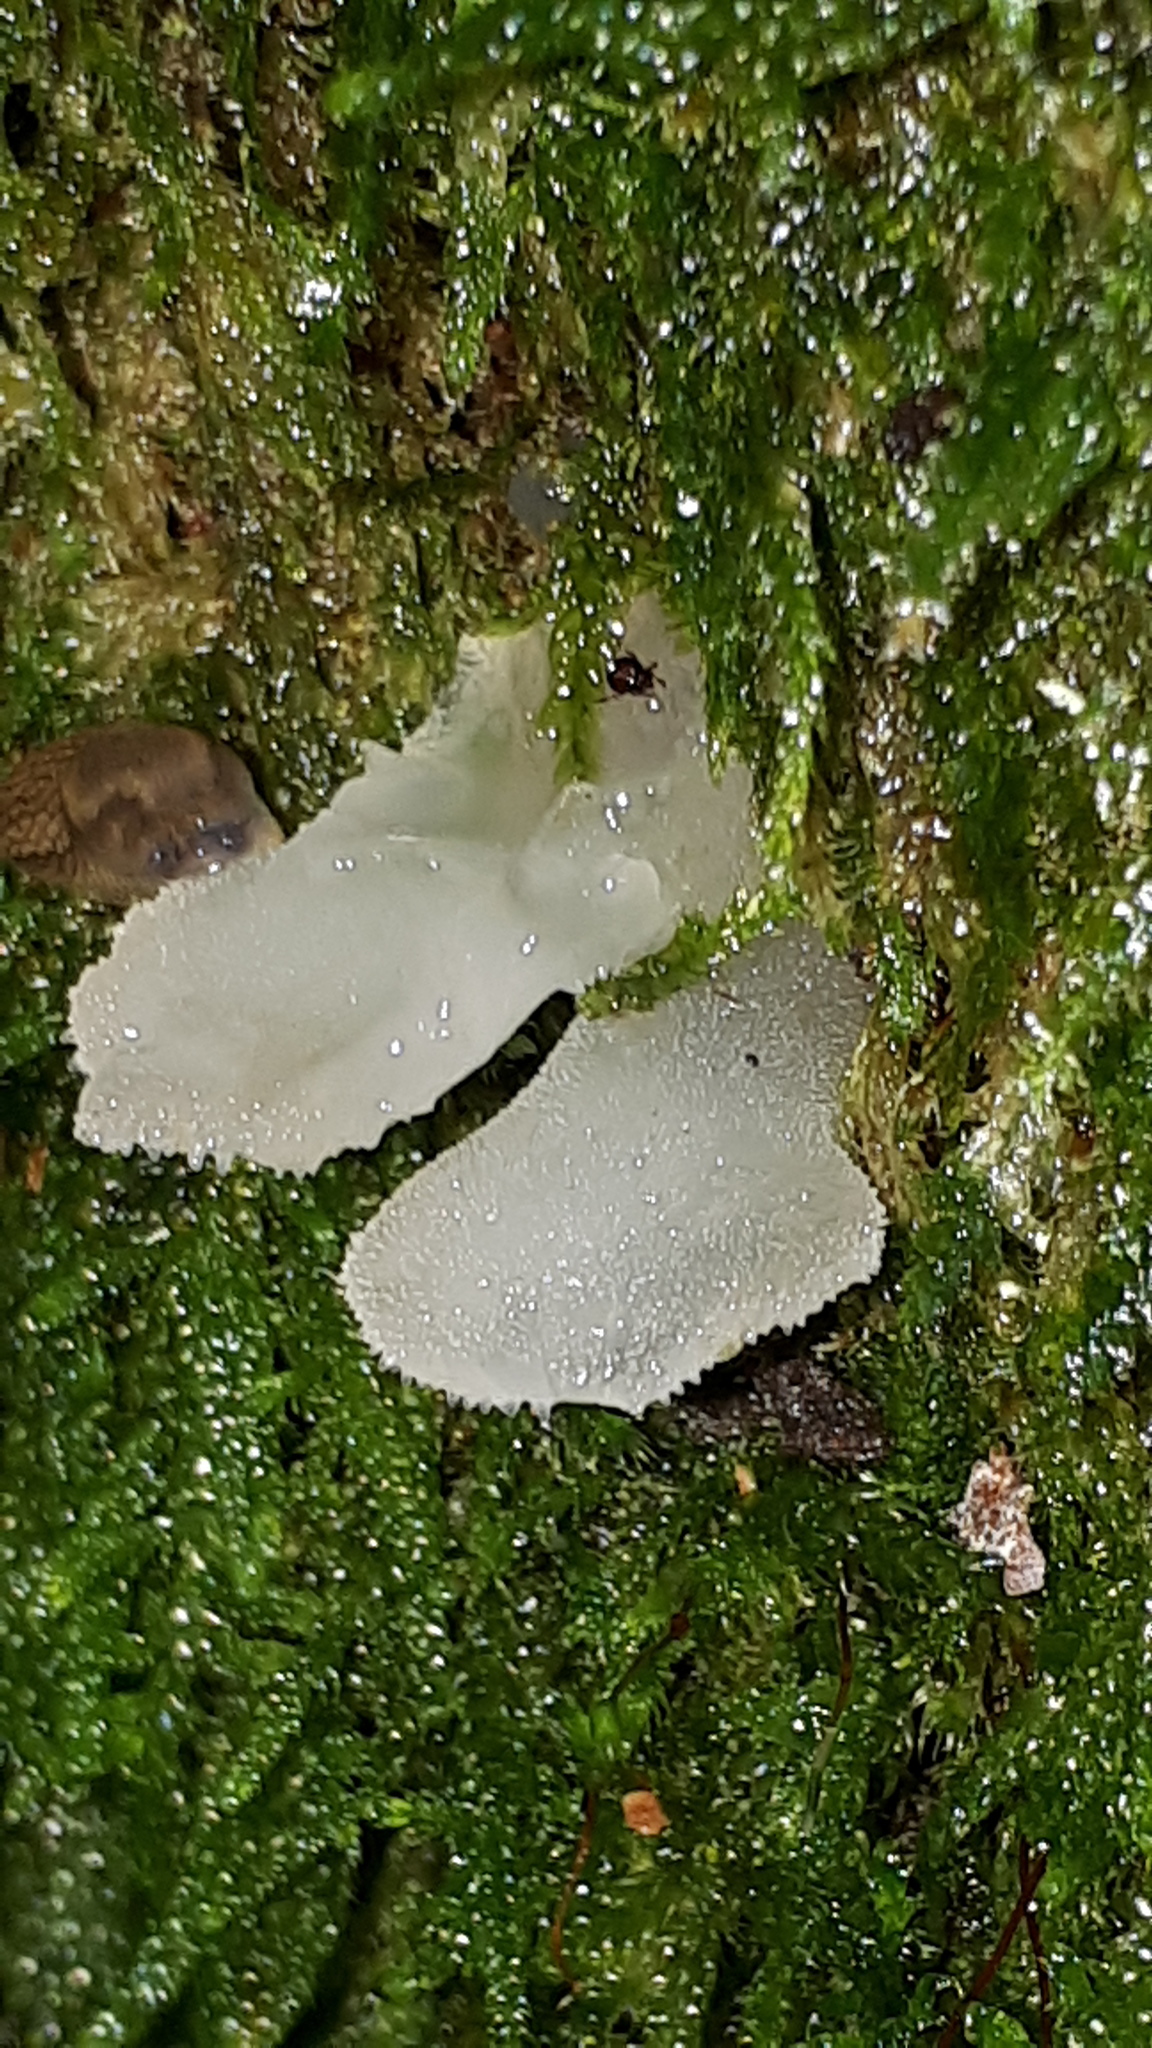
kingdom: Fungi
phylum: Basidiomycota
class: Agaricomycetes
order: Auriculariales
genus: Pseudohydnum
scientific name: Pseudohydnum gelatinosum
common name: Jelly tongue
